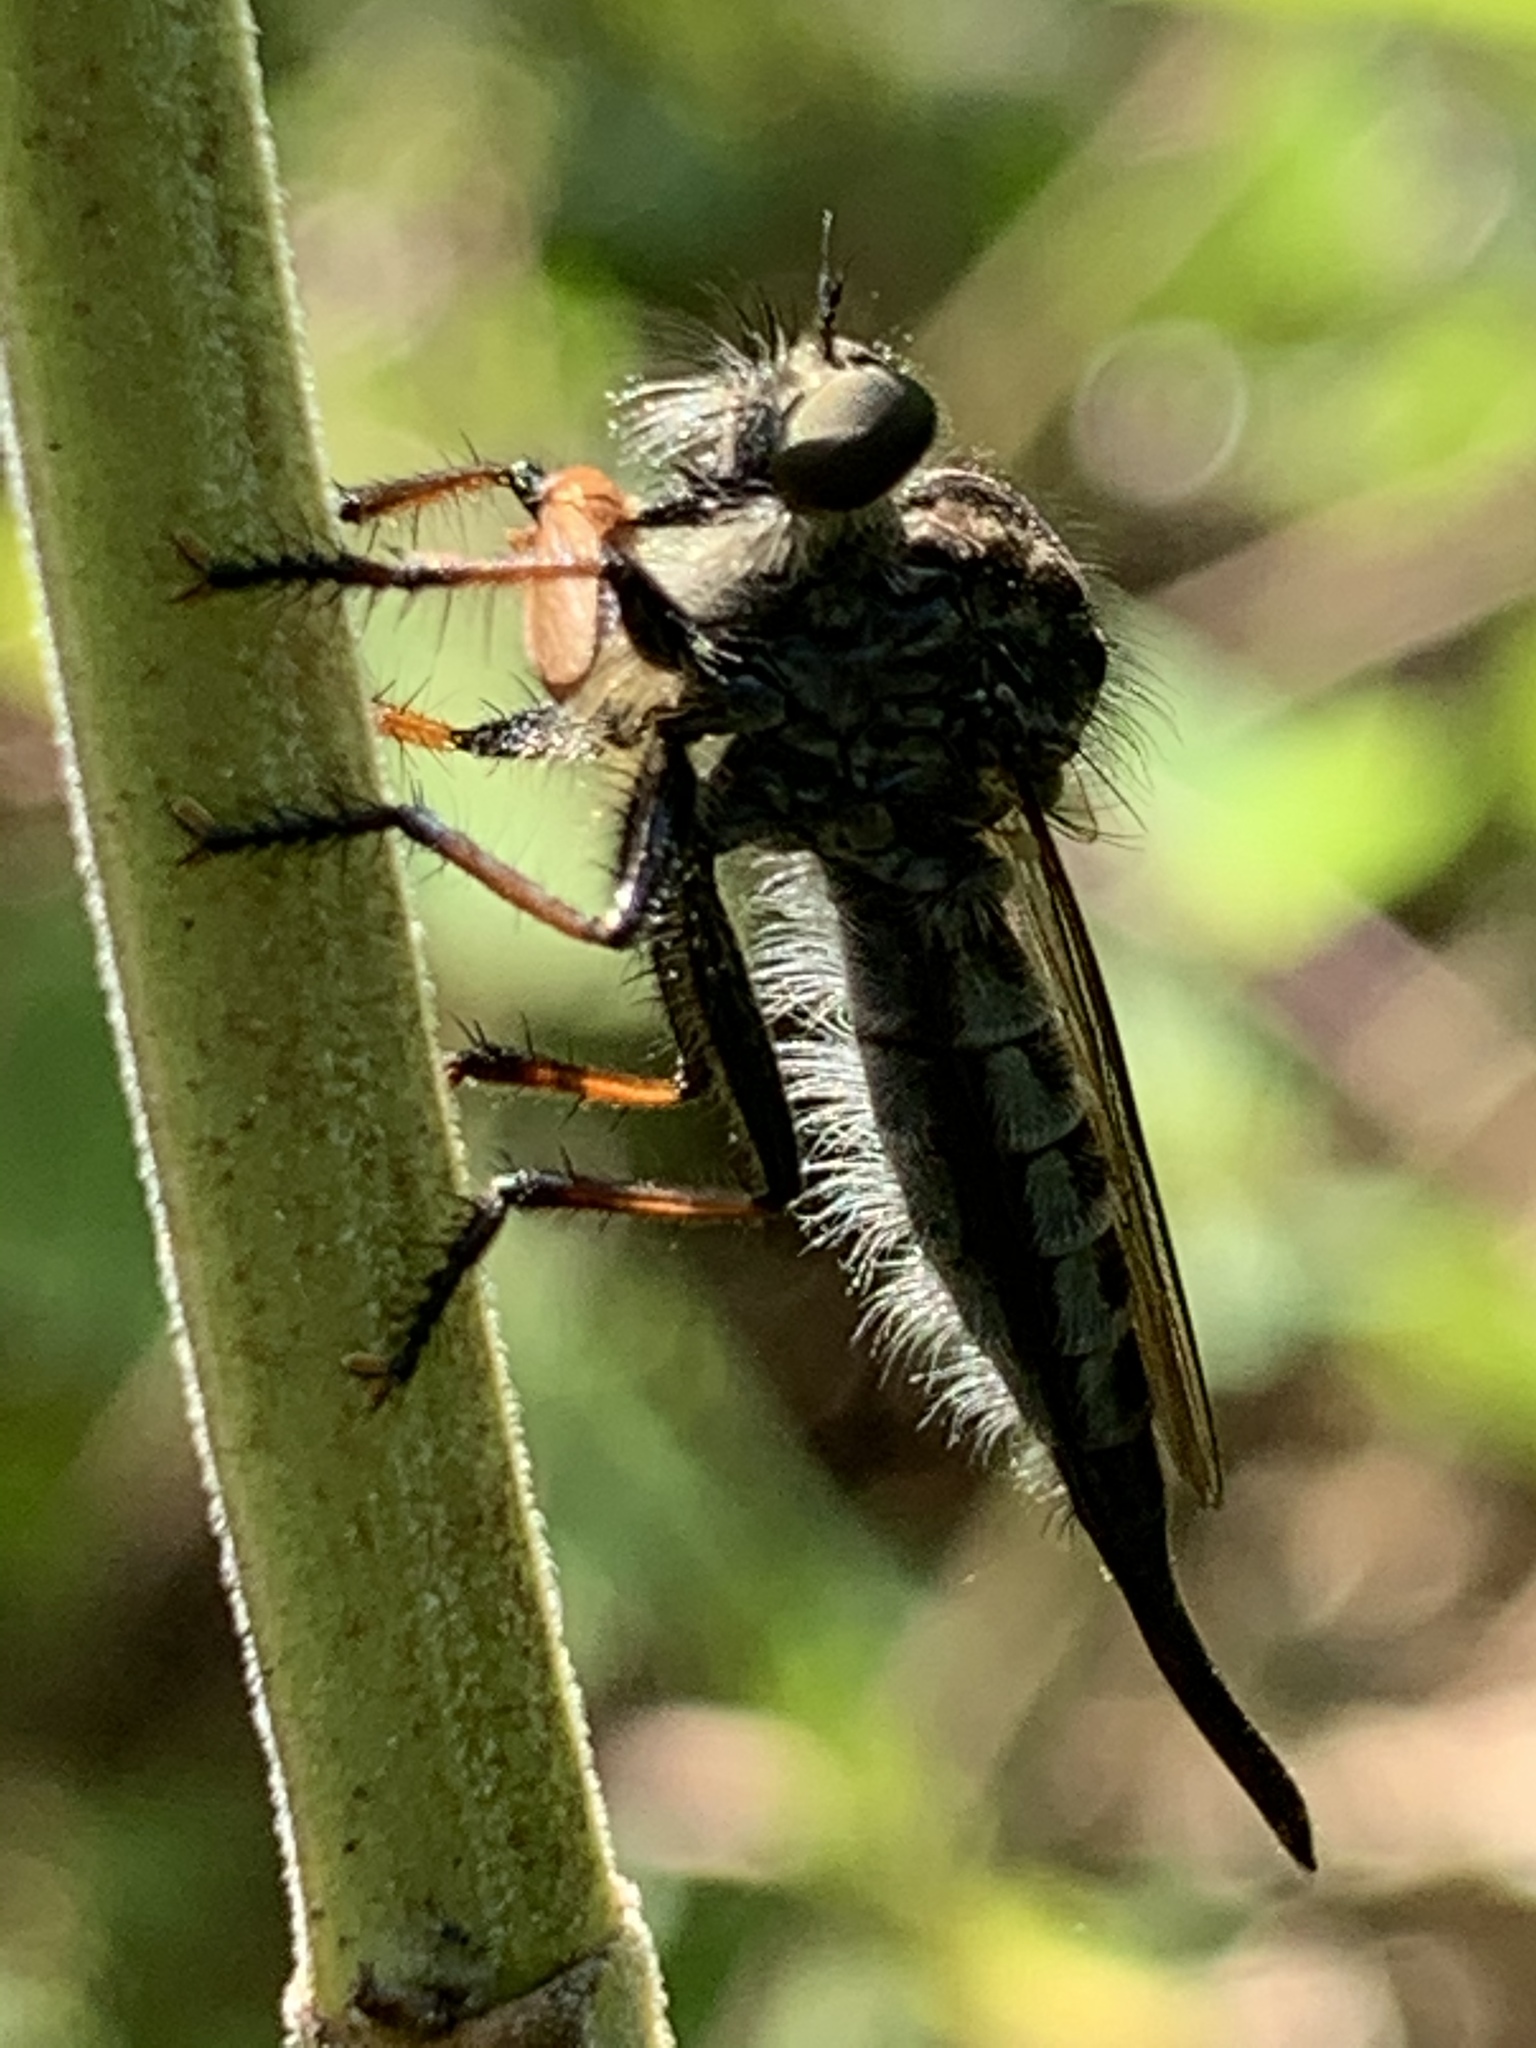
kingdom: Animalia
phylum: Arthropoda
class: Insecta
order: Diptera
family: Asilidae
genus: Efferia
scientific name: Efferia aestuans
